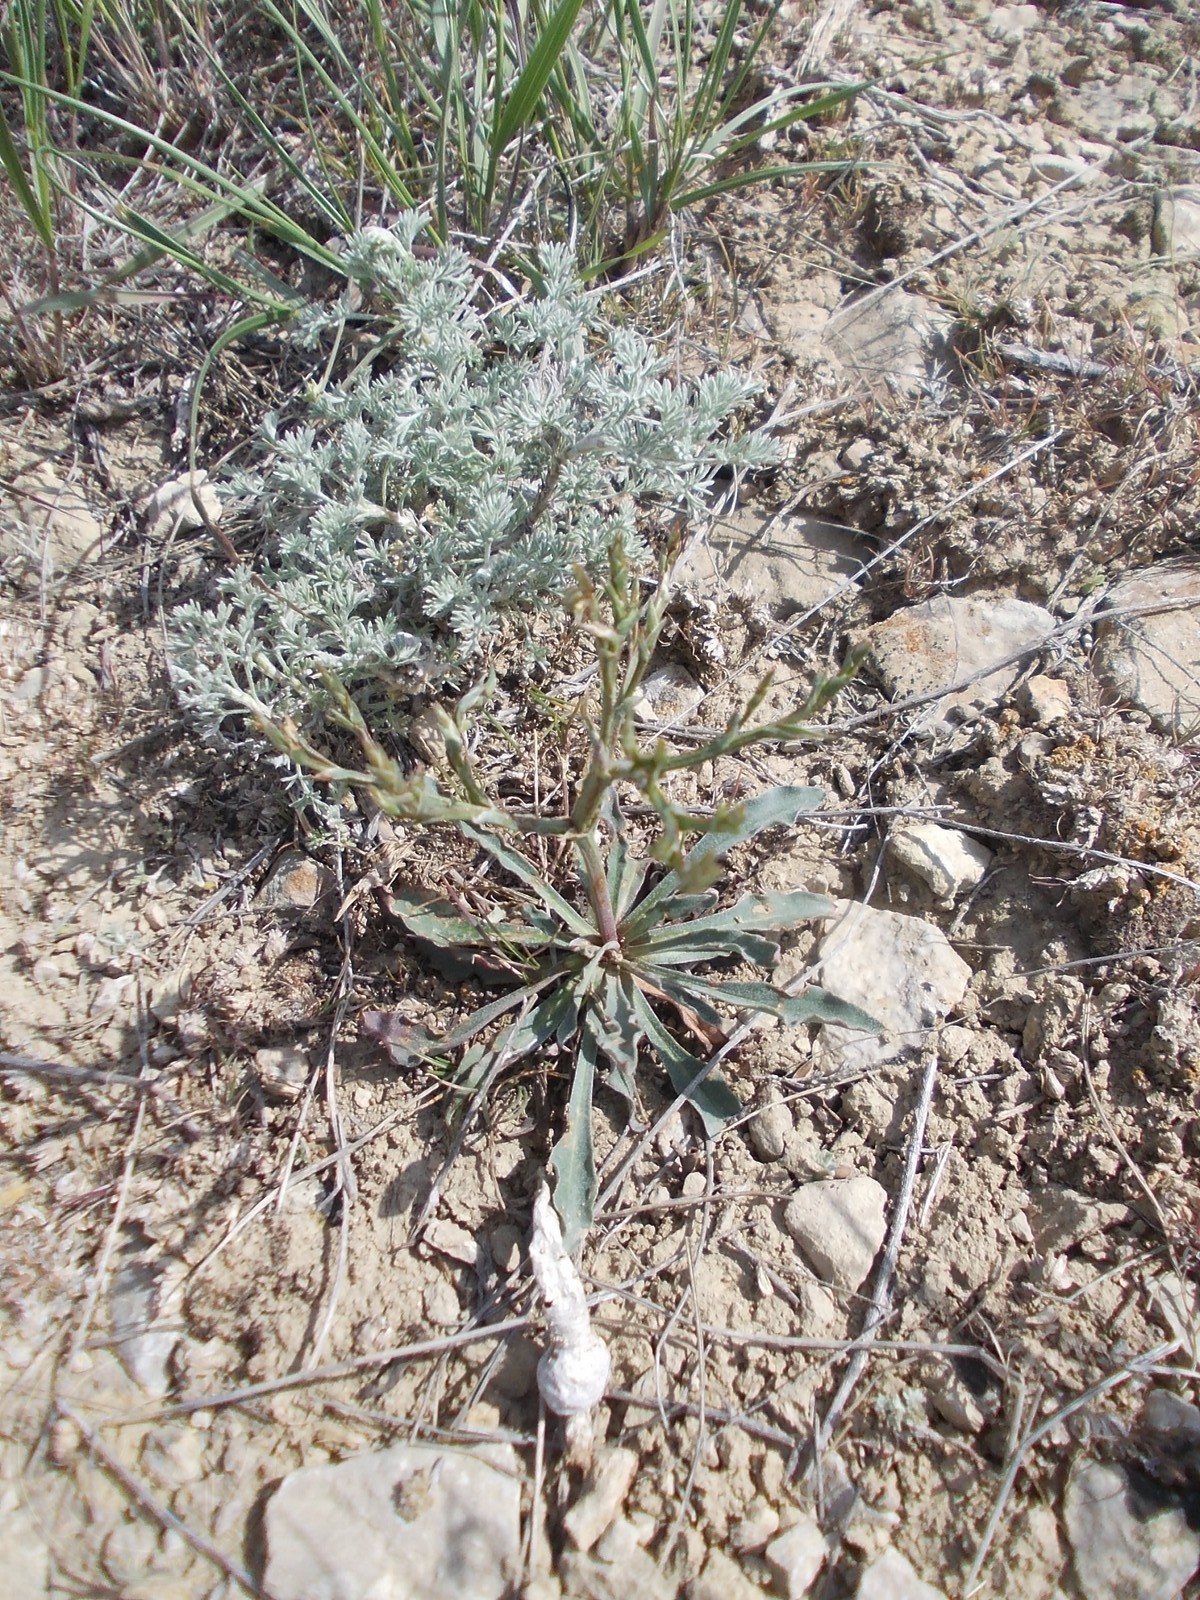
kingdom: Plantae
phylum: Tracheophyta
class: Magnoliopsida
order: Caryophyllales
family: Plumbaginaceae
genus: Goniolimon
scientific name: Goniolimon rubellum
